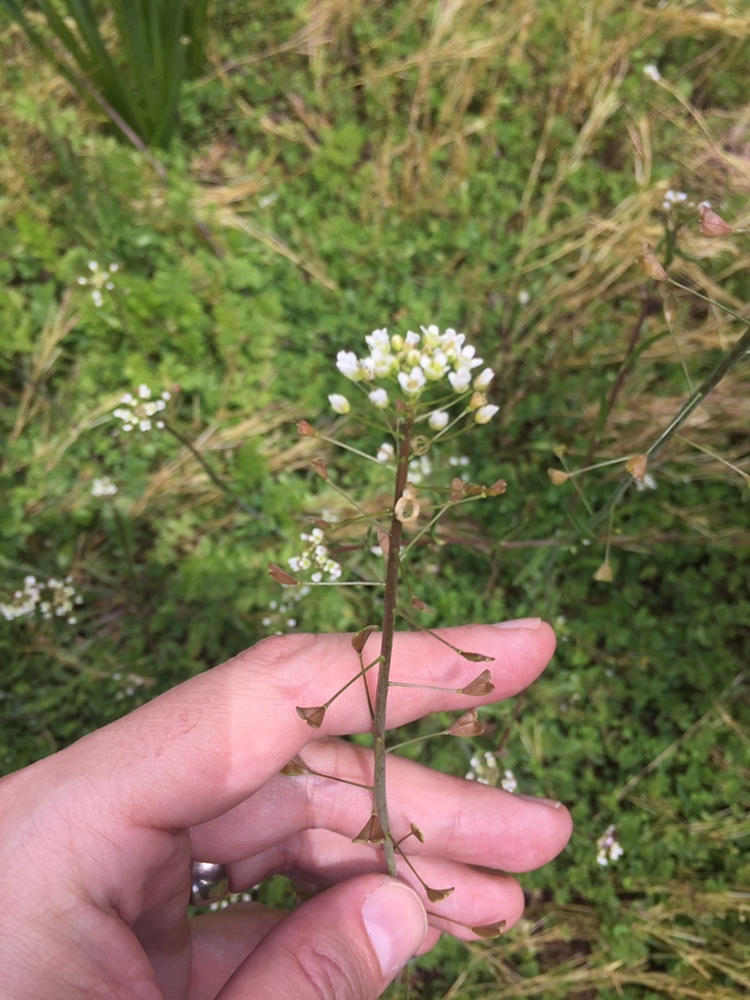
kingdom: Plantae
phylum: Tracheophyta
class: Magnoliopsida
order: Brassicales
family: Brassicaceae
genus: Capsella
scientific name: Capsella bursa-pastoris
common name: Shepherd's purse
